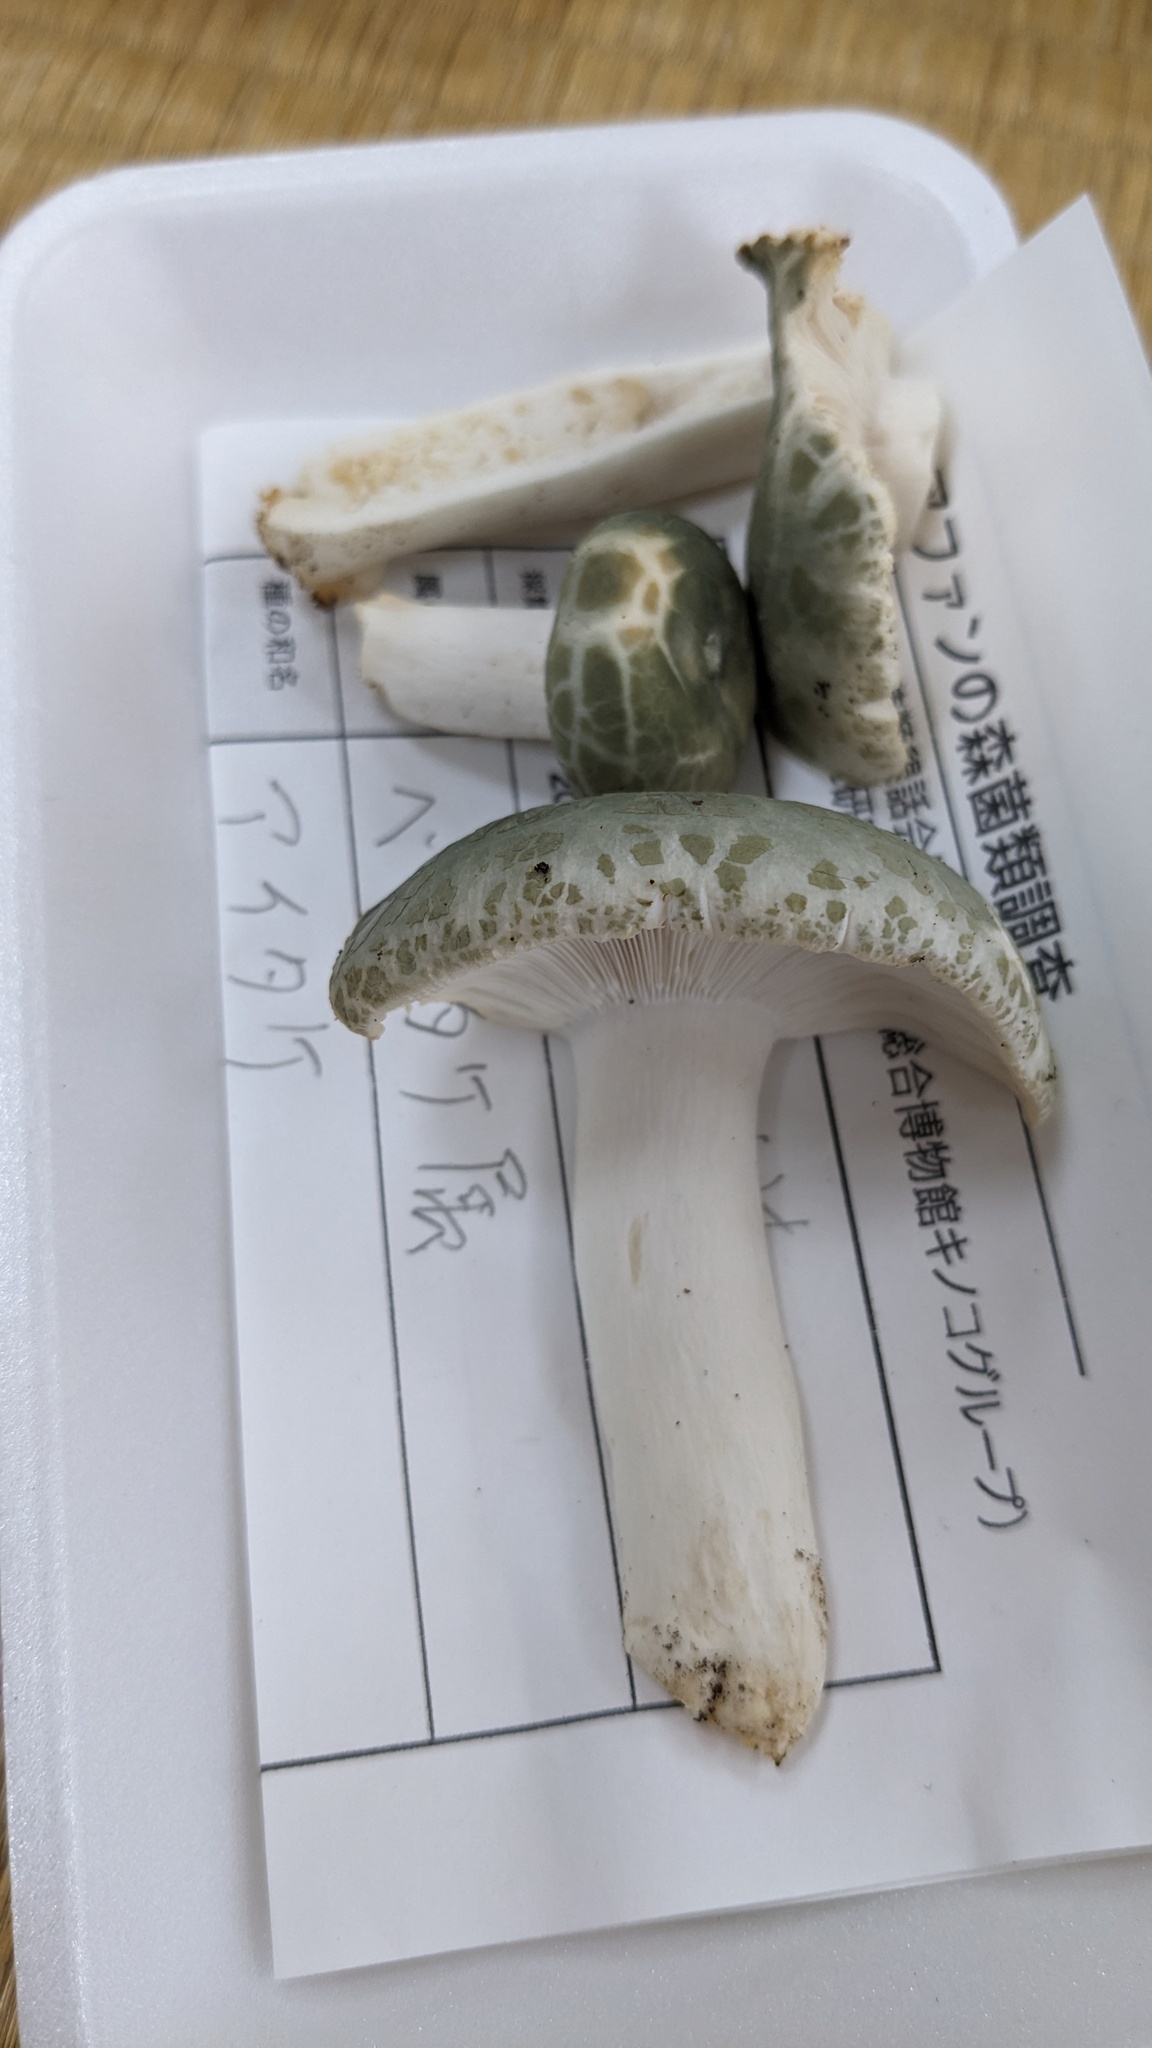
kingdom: Fungi
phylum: Basidiomycota
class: Agaricomycetes
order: Russulales
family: Russulaceae
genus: Russula
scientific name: Russula virescens
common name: Greencracked brittlegill
